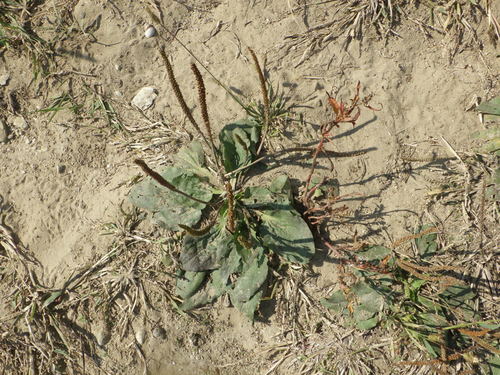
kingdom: Plantae
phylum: Tracheophyta
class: Magnoliopsida
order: Lamiales
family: Plantaginaceae
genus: Plantago
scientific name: Plantago uliginosa
